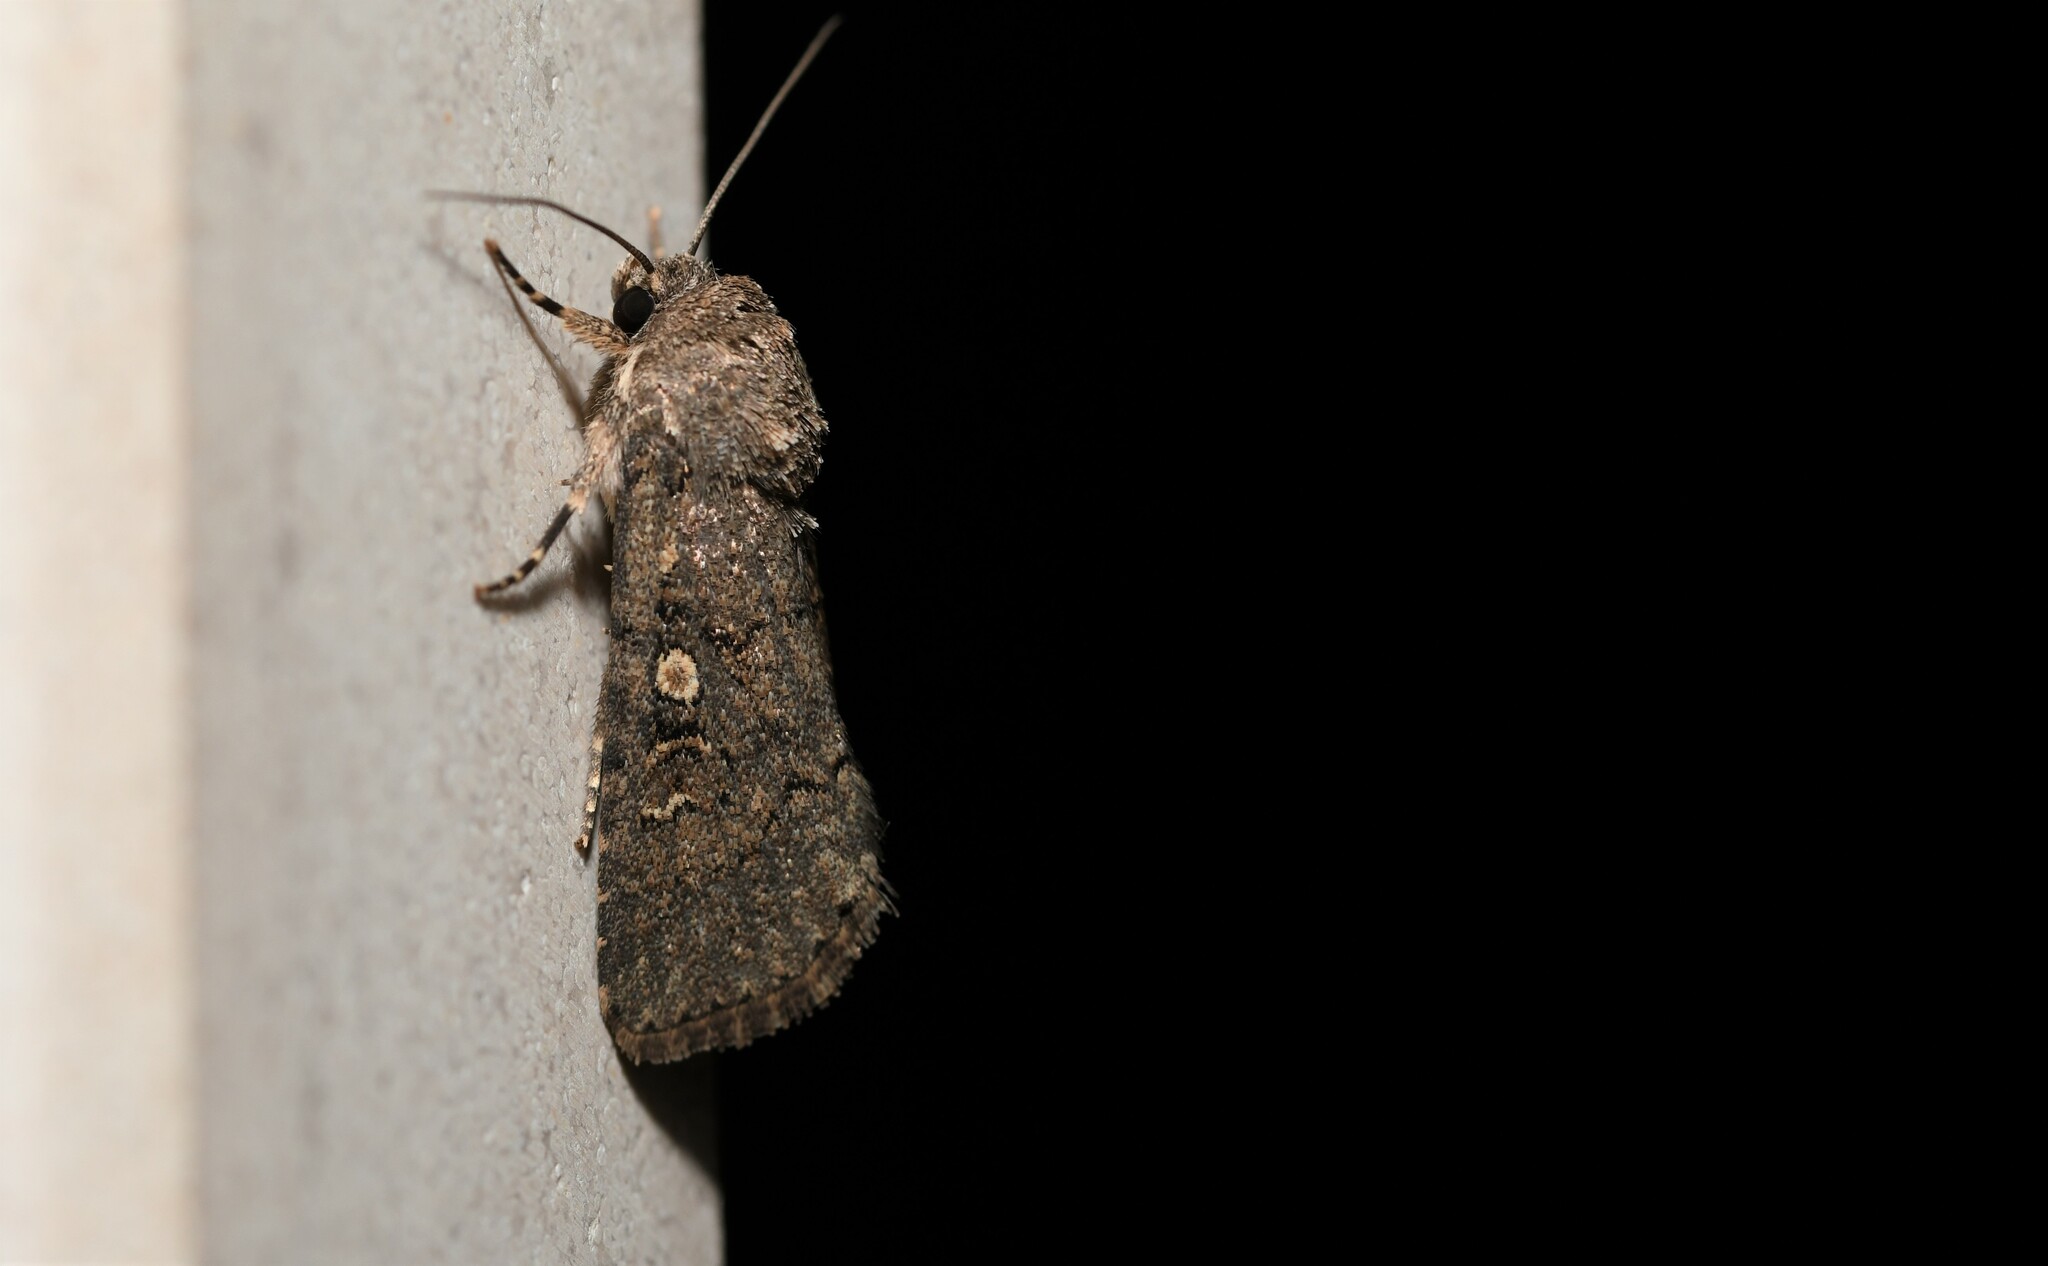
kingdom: Animalia
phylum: Arthropoda
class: Insecta
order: Lepidoptera
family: Noctuidae
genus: Spodoptera
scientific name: Spodoptera cilium
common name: Dark mottled willow
